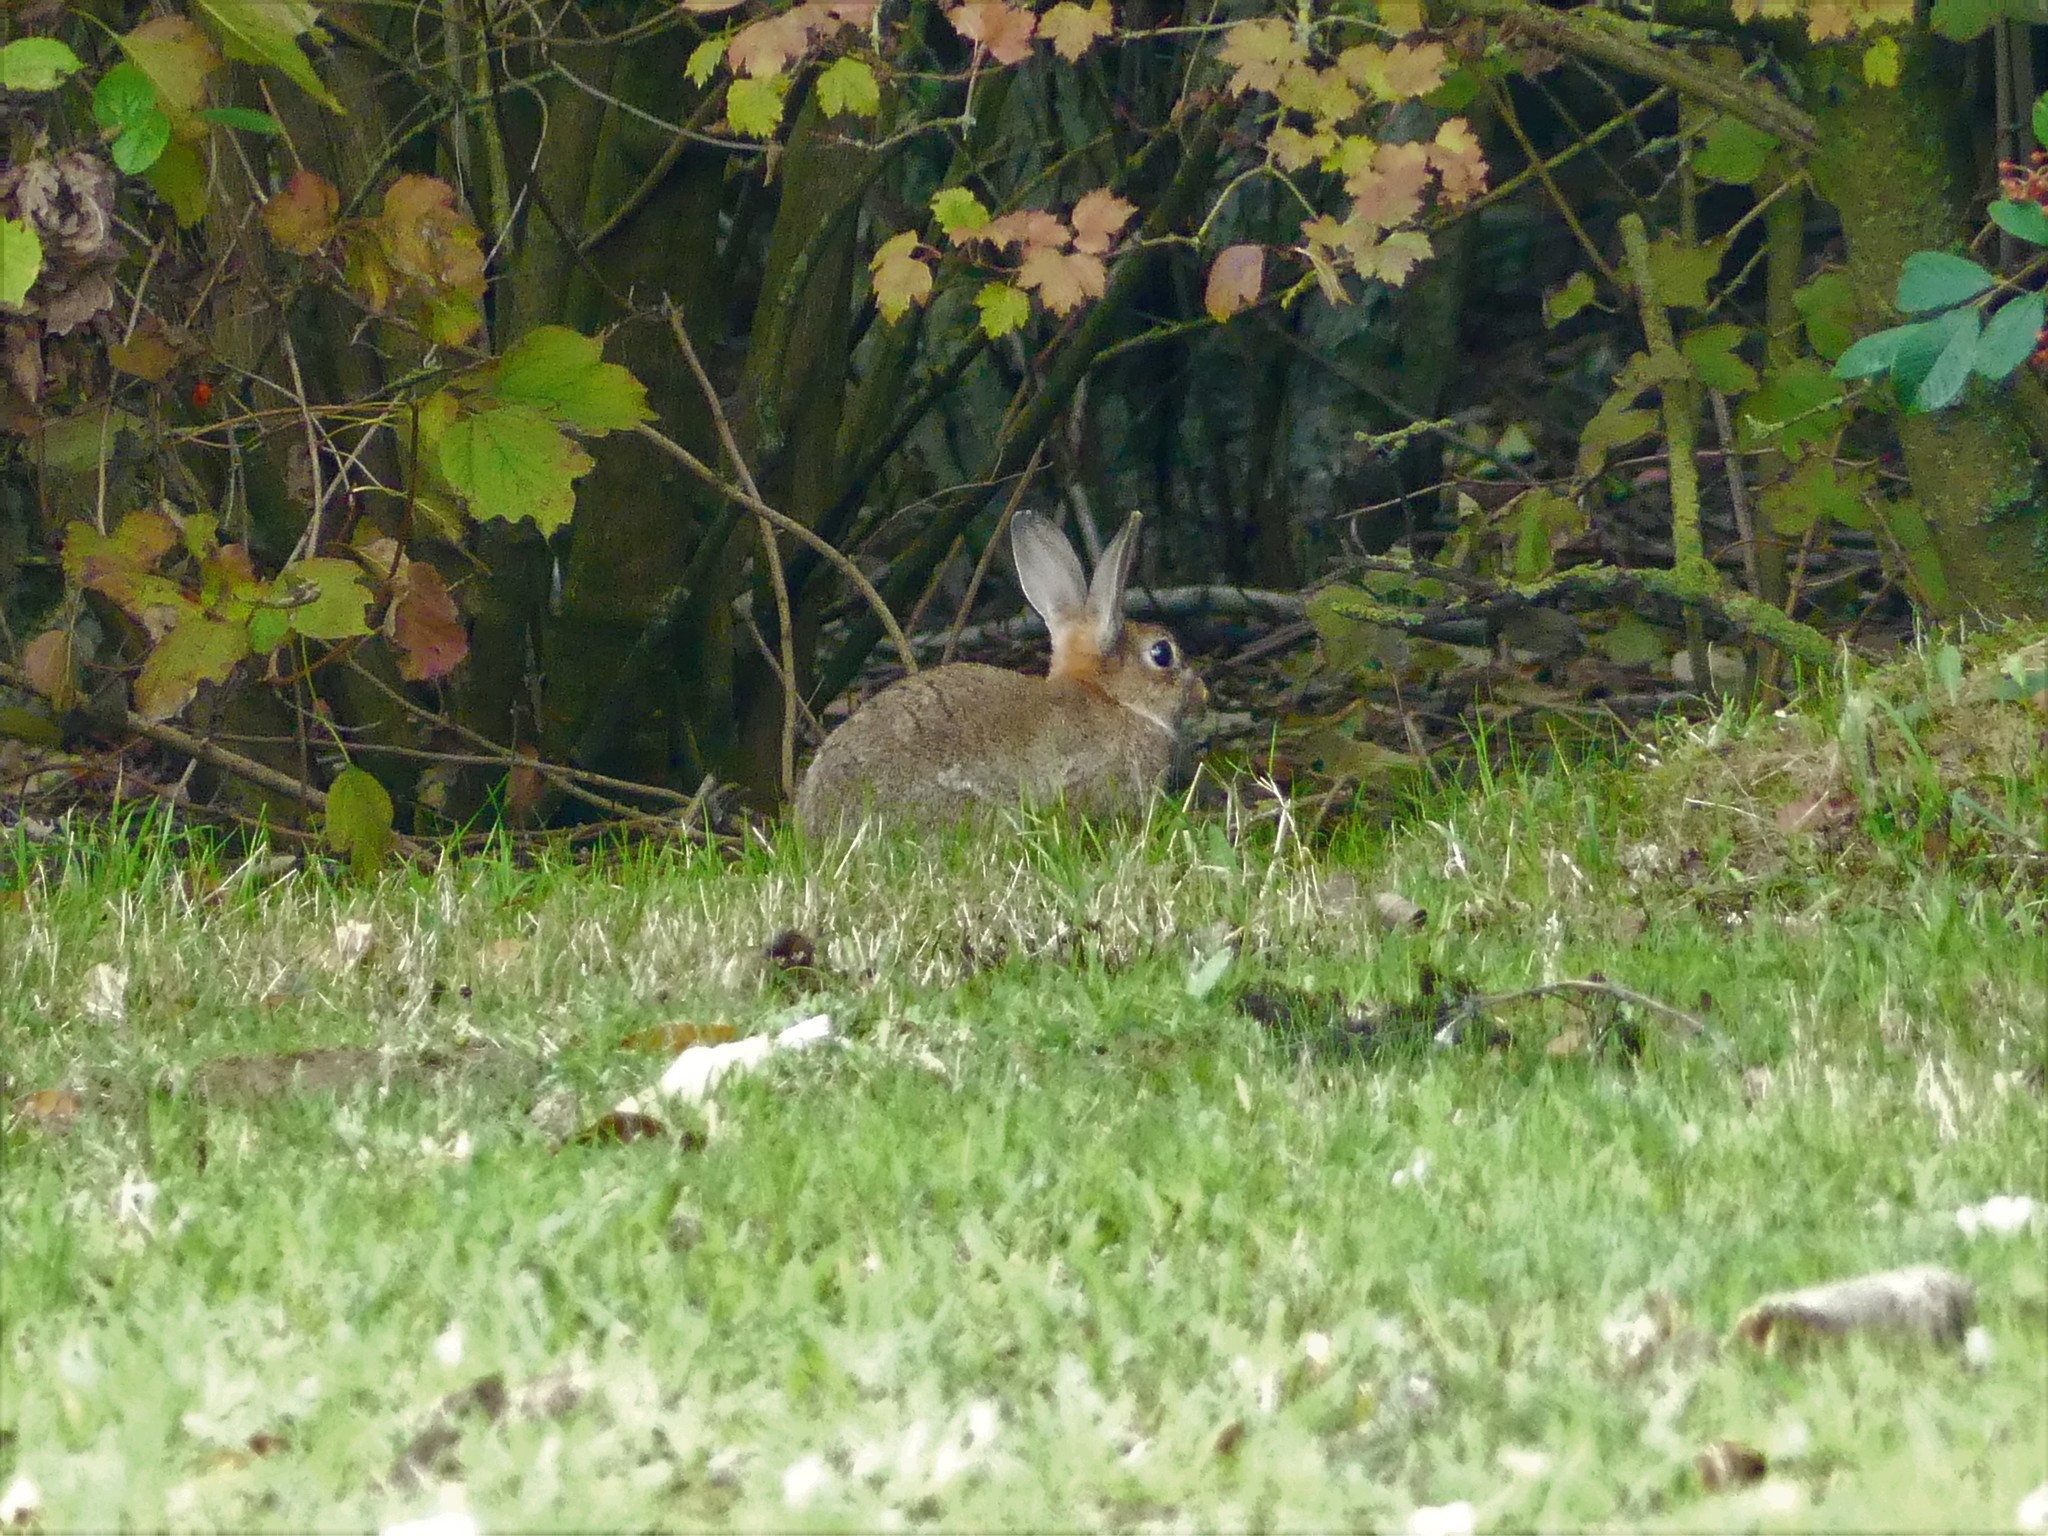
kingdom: Animalia
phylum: Chordata
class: Mammalia
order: Lagomorpha
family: Leporidae
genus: Oryctolagus
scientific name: Oryctolagus cuniculus
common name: European rabbit
